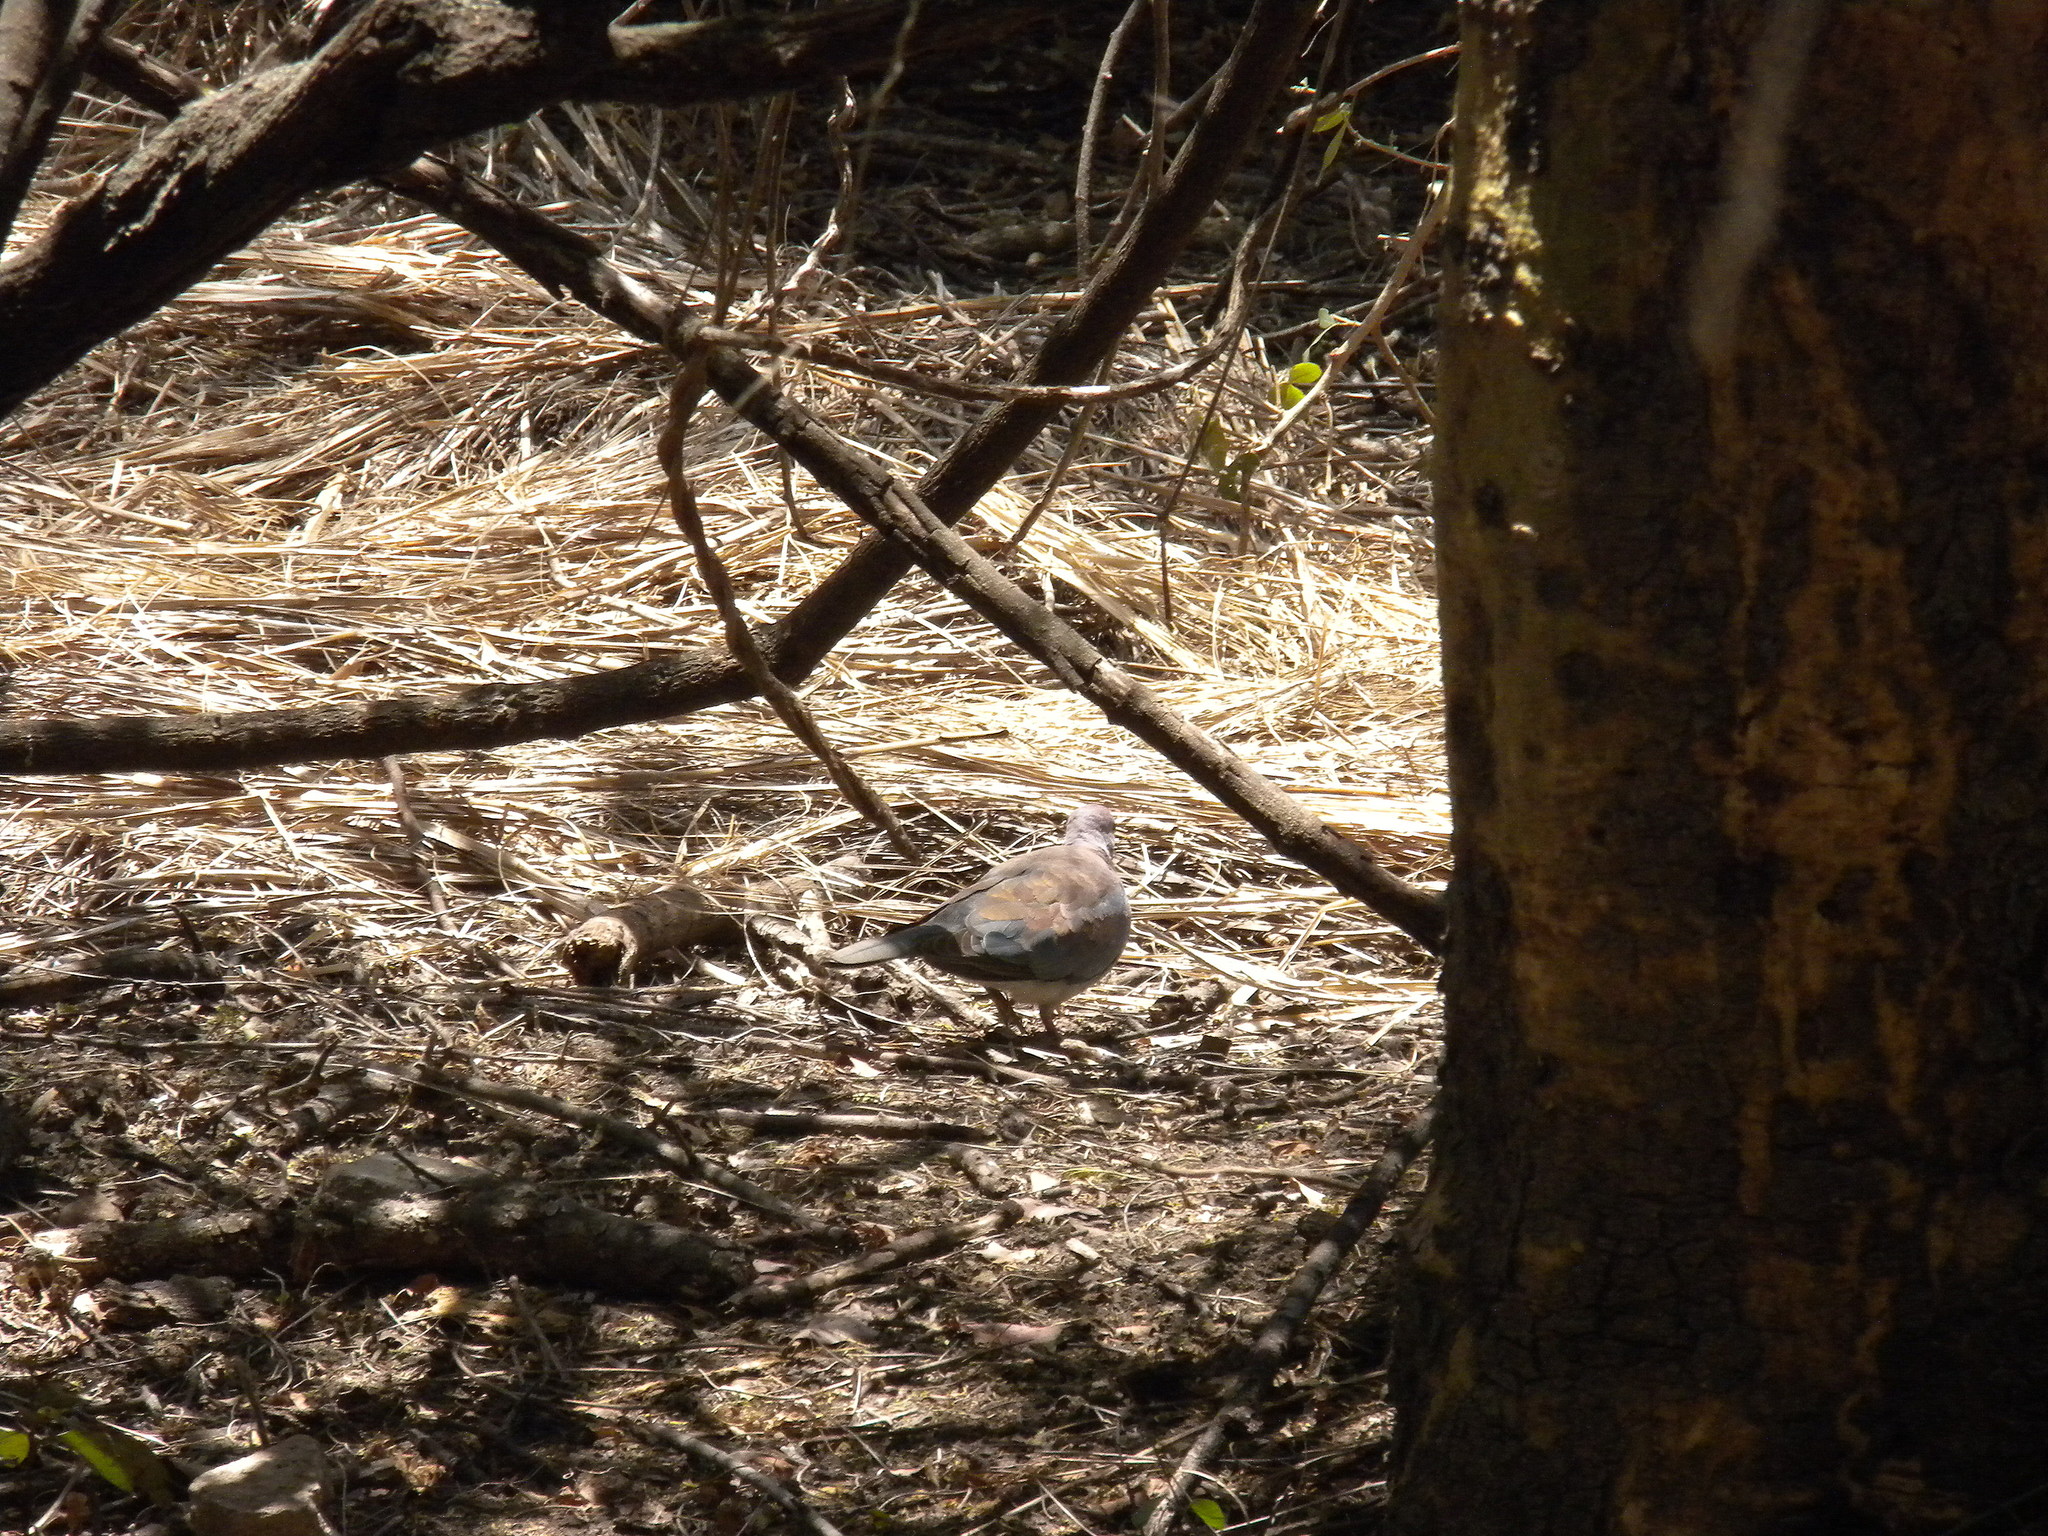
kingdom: Animalia
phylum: Chordata
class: Aves
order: Columbiformes
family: Columbidae
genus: Spilopelia
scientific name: Spilopelia senegalensis
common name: Laughing dove
